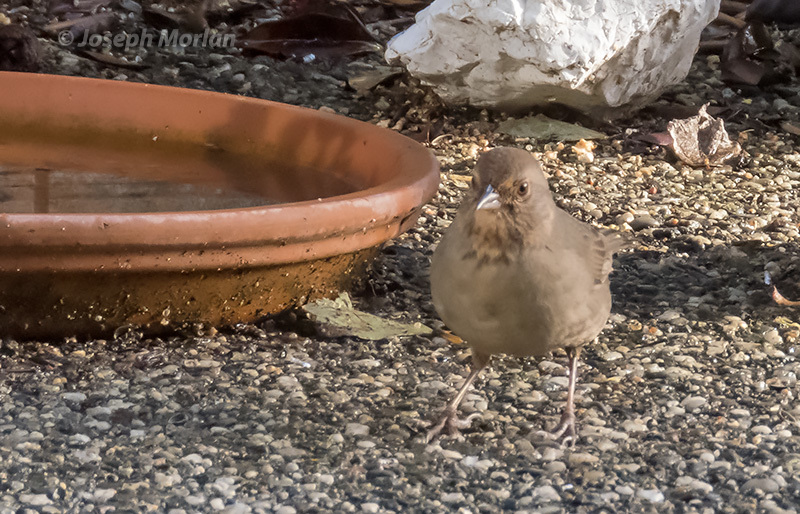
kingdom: Animalia
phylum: Chordata
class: Aves
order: Passeriformes
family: Passerellidae
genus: Melozone
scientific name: Melozone crissalis
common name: California towhee
